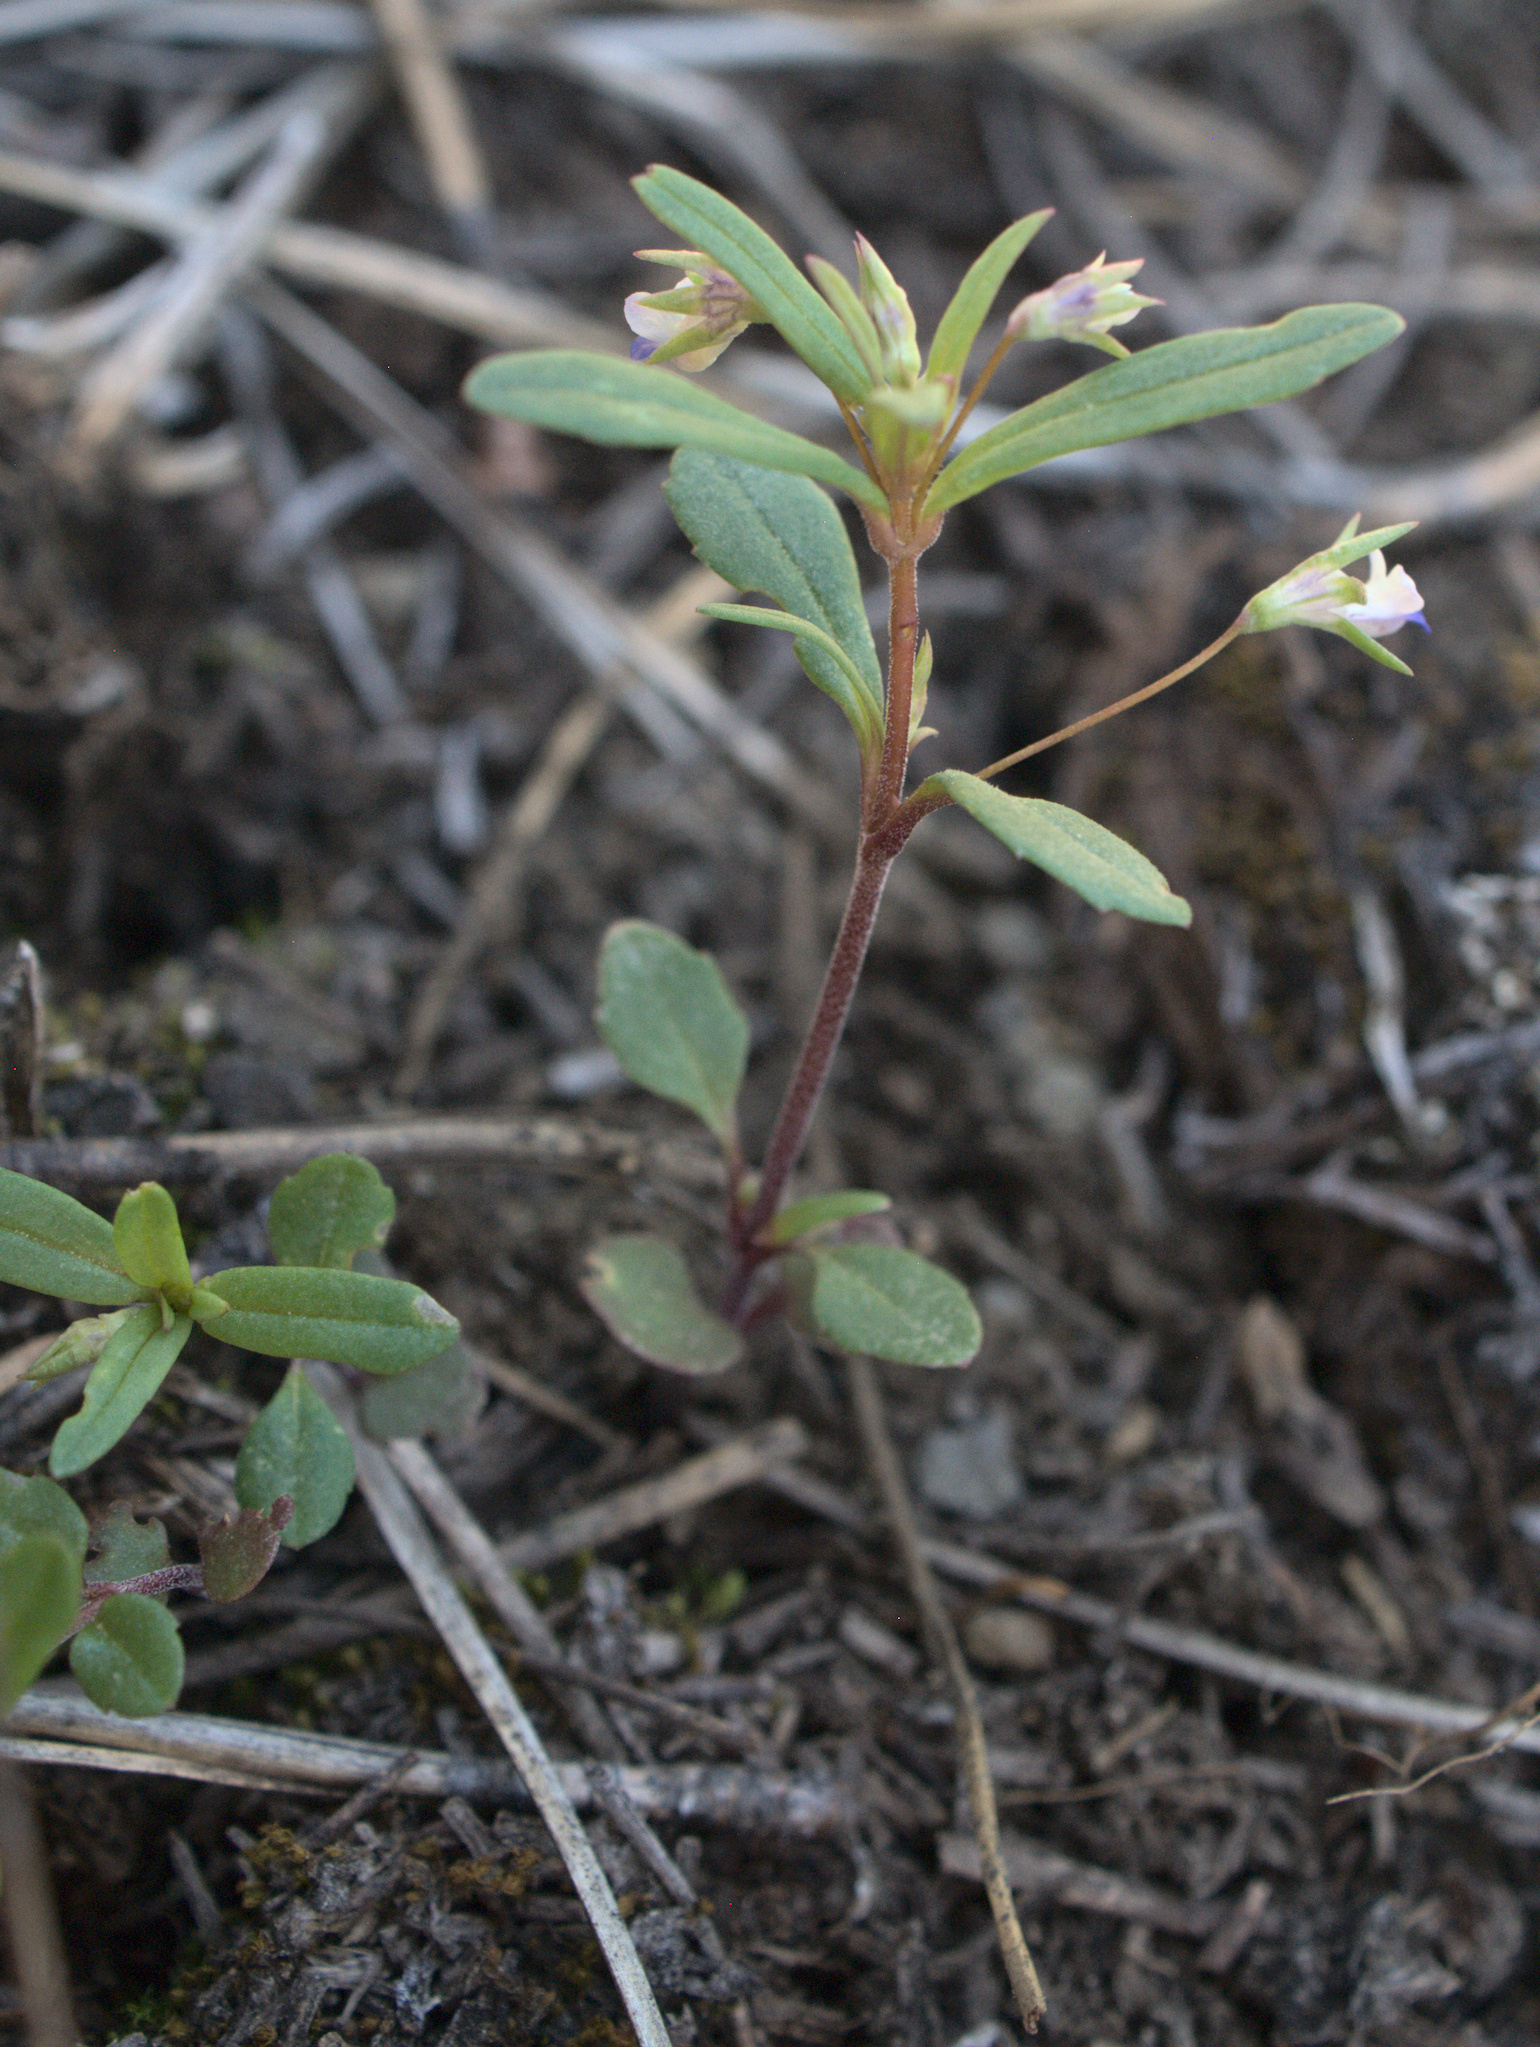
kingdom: Plantae
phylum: Tracheophyta
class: Magnoliopsida
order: Lamiales
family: Plantaginaceae
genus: Collinsia
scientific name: Collinsia parviflora
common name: Blue-lips
